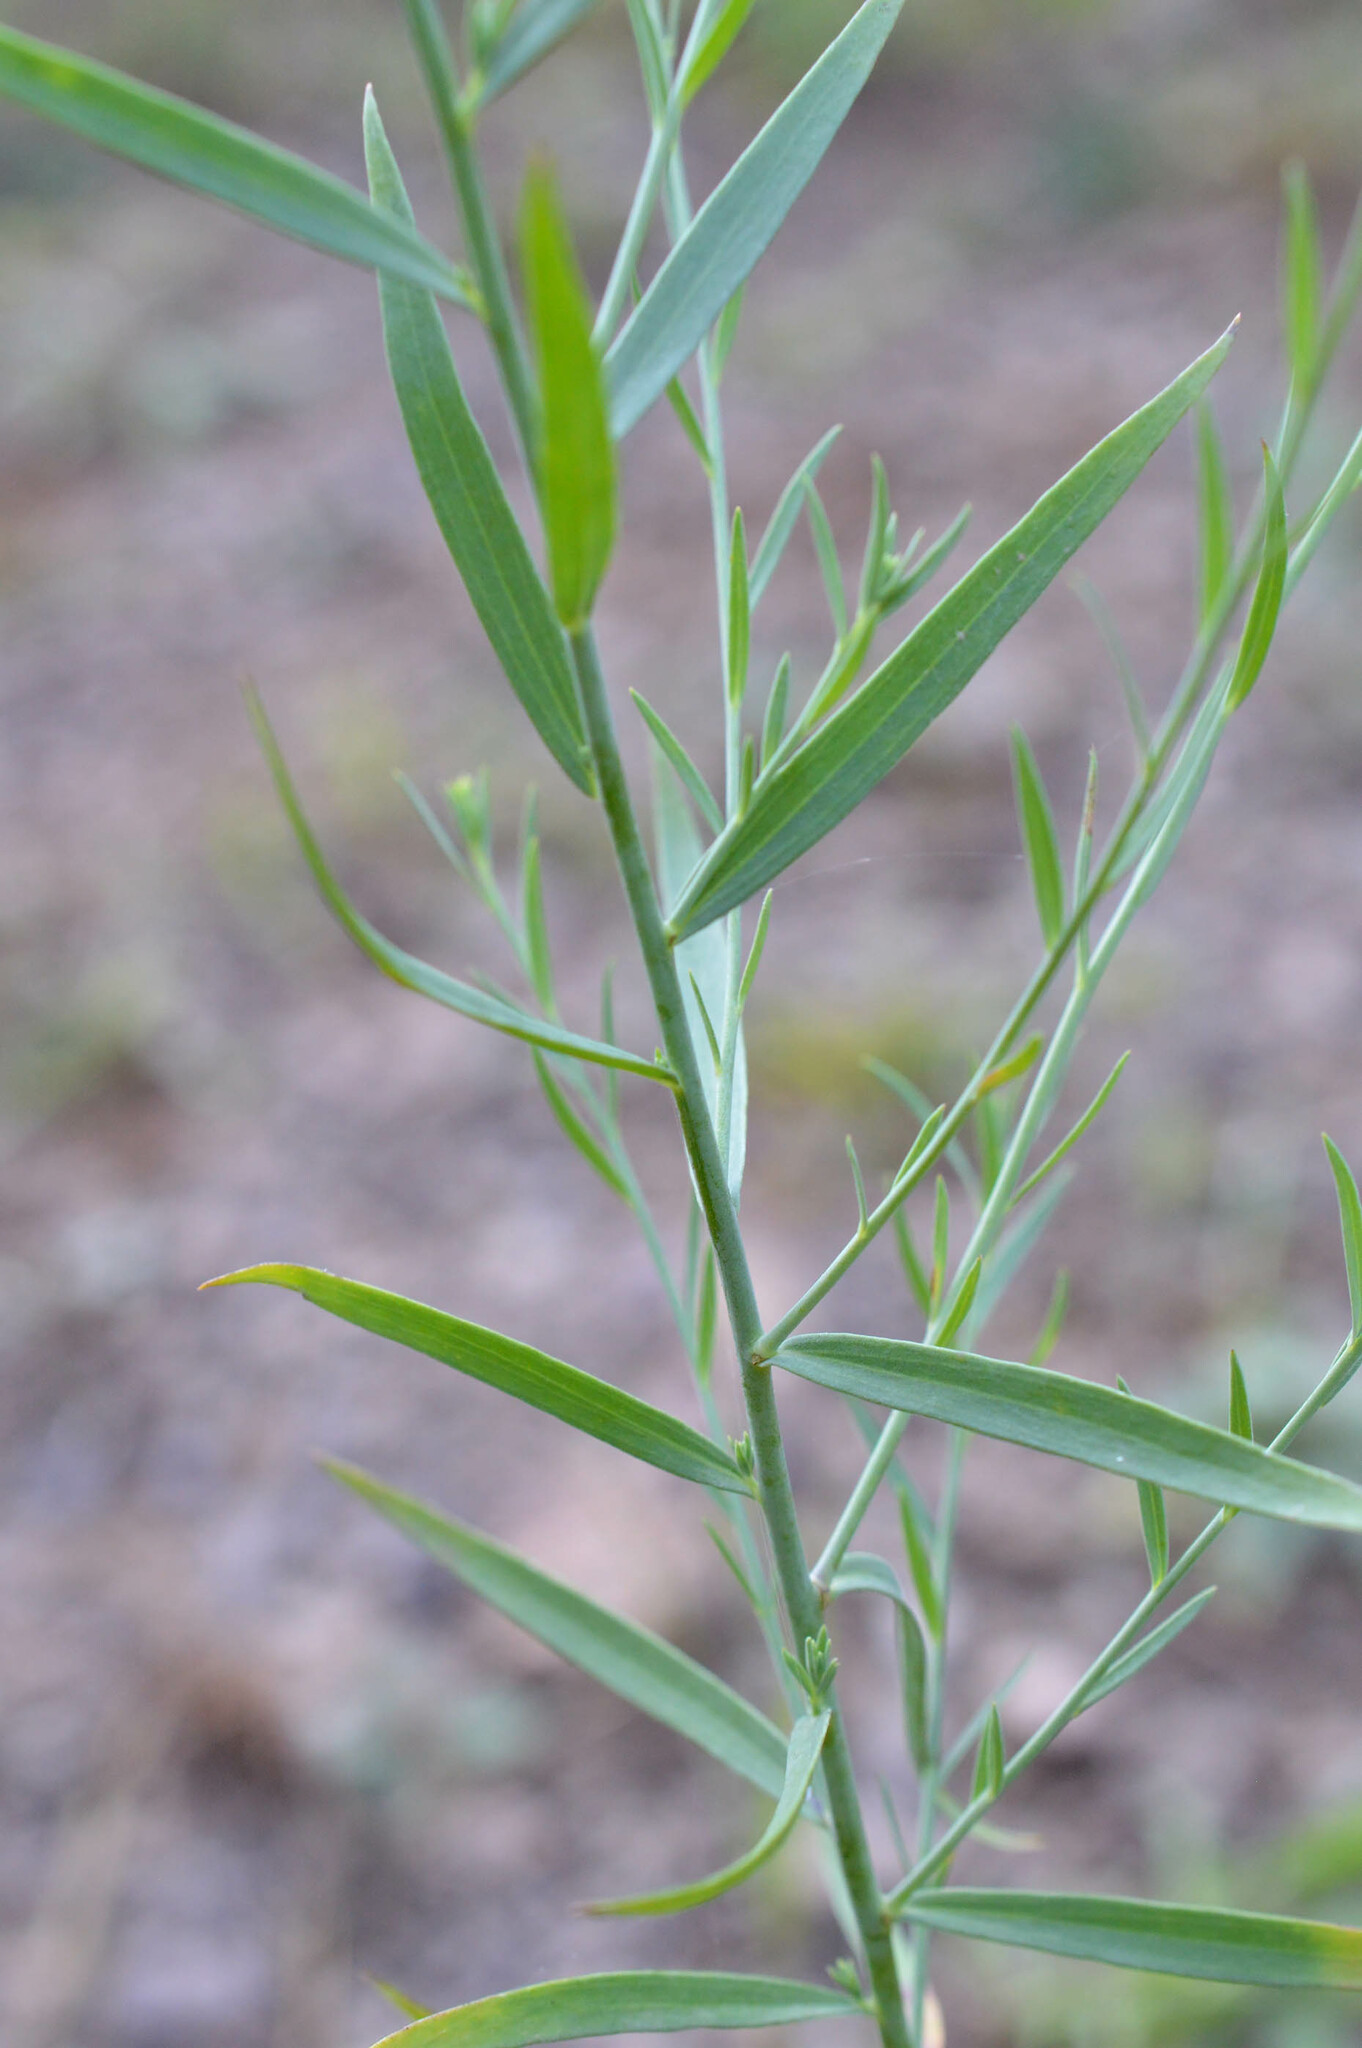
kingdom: Plantae
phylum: Tracheophyta
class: Magnoliopsida
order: Lamiales
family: Plantaginaceae
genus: Linaria
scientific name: Linaria genistifolia
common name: Broomleaf toadflax
